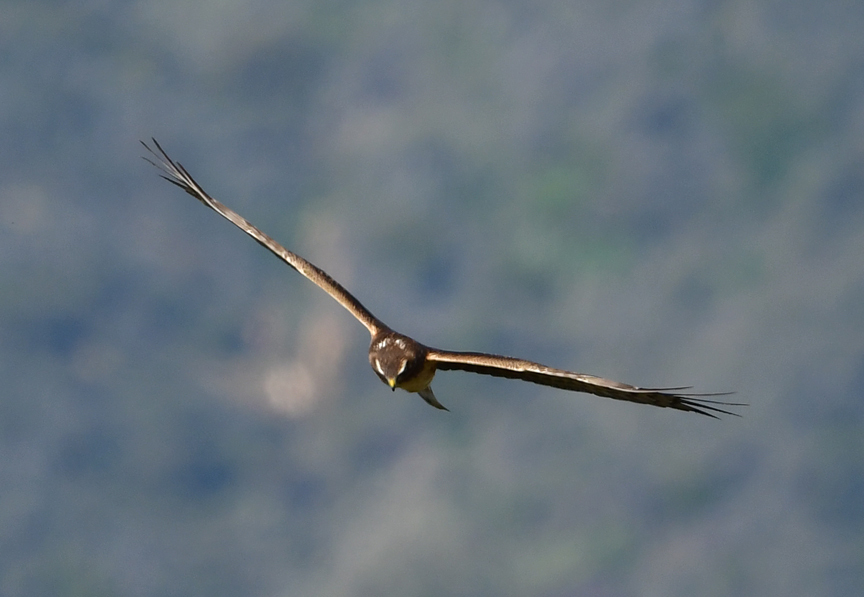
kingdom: Animalia
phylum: Chordata
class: Aves
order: Accipitriformes
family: Accipitridae
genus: Circus
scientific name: Circus cyaneus
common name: Hen harrier
